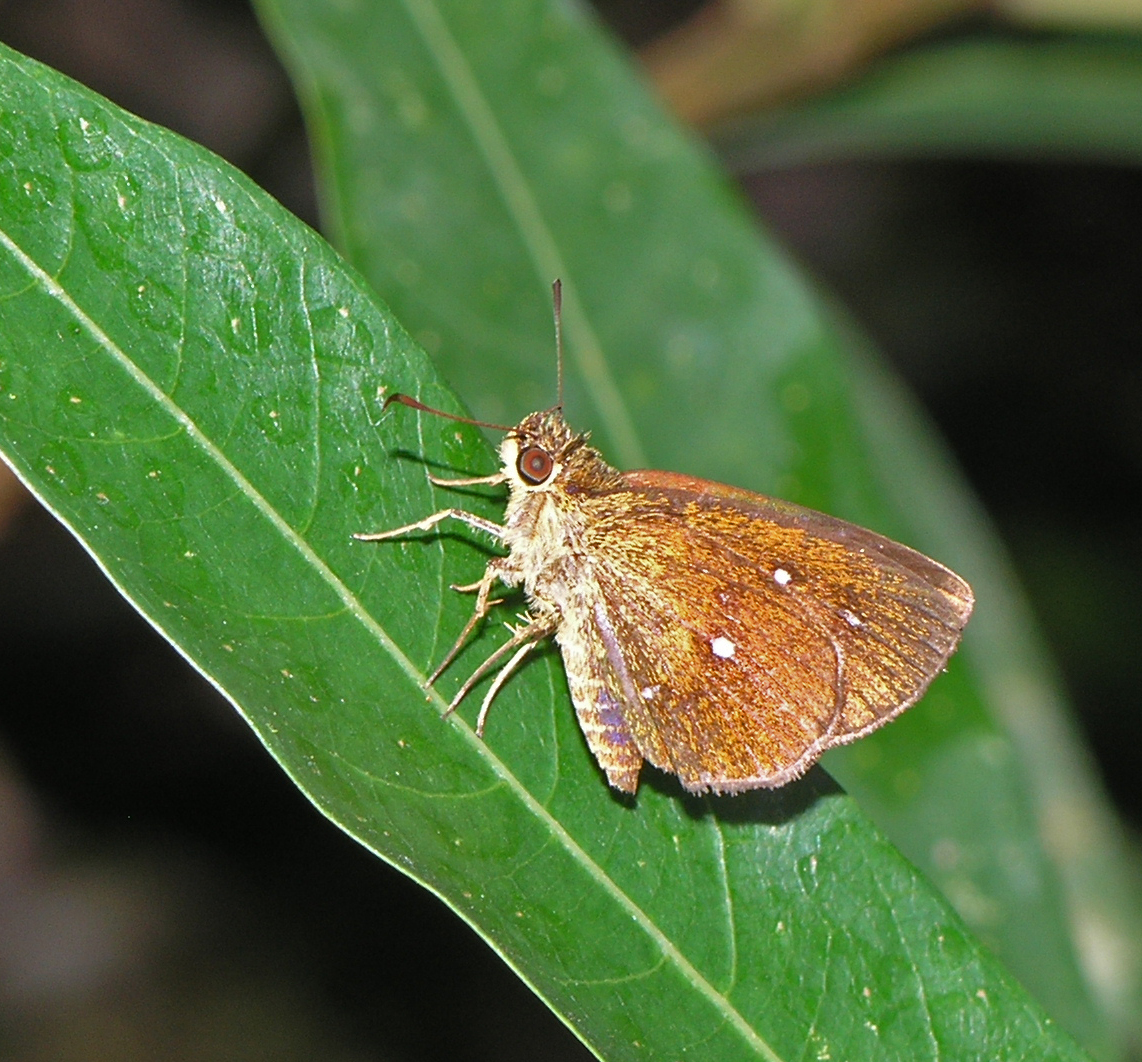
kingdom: Animalia
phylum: Arthropoda
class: Insecta
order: Lepidoptera
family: Hesperiidae
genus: Iambrix
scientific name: Iambrix salsala
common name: Chestnut bob
